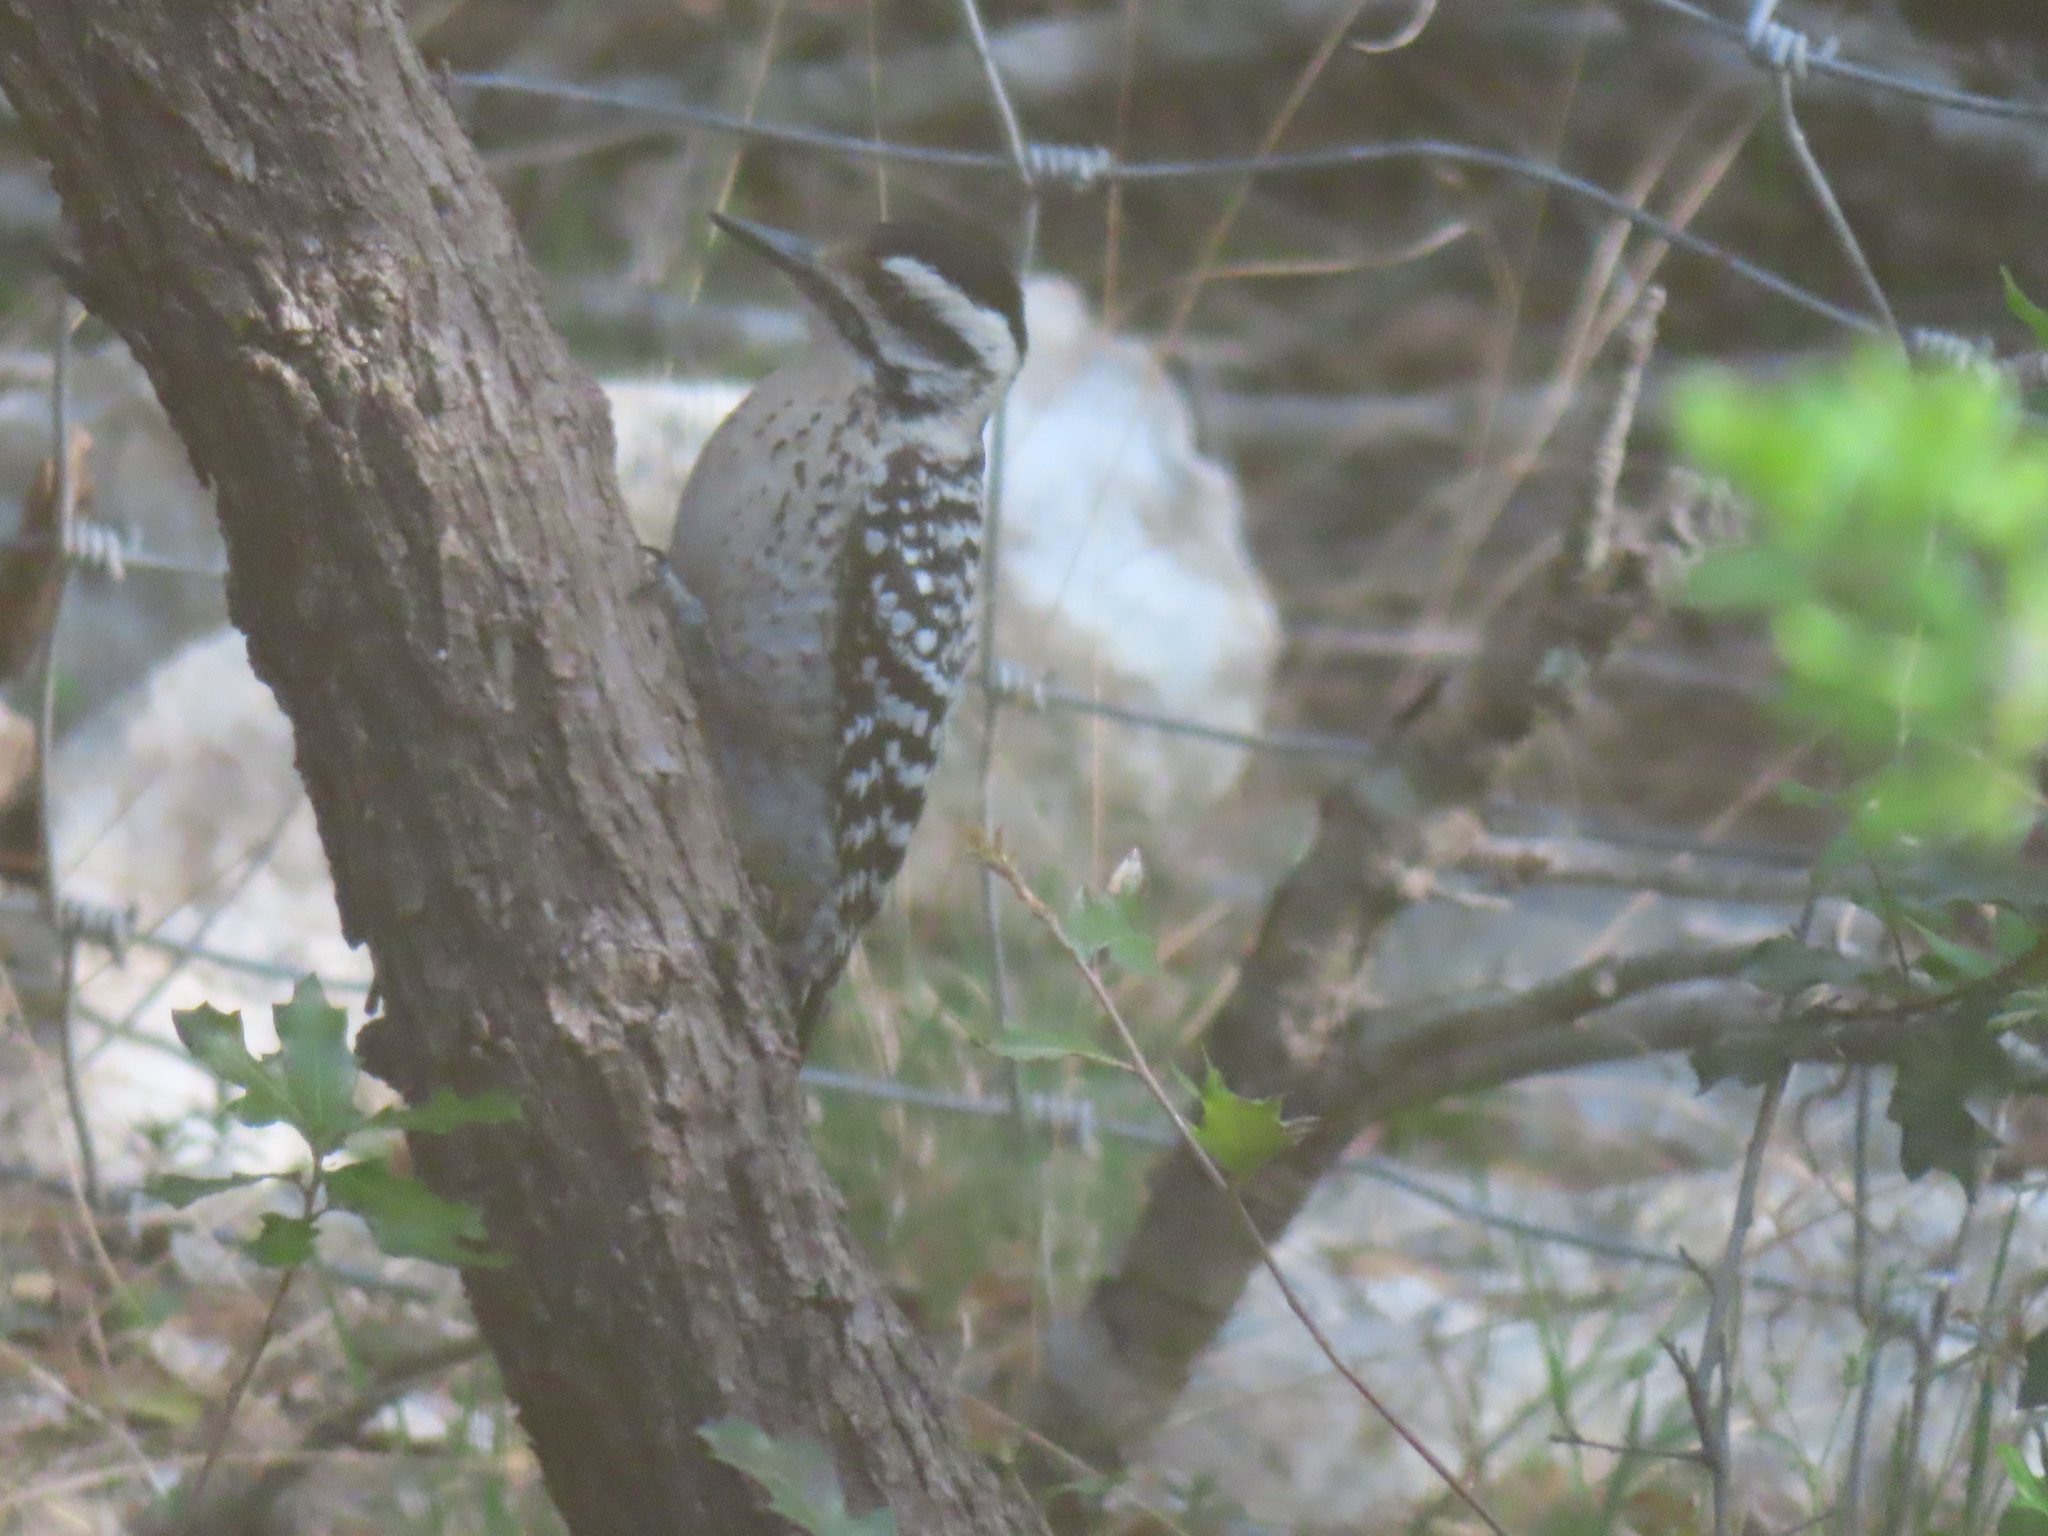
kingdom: Animalia
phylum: Chordata
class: Aves
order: Piciformes
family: Picidae
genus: Dryobates
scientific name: Dryobates scalaris
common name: Ladder-backed woodpecker
